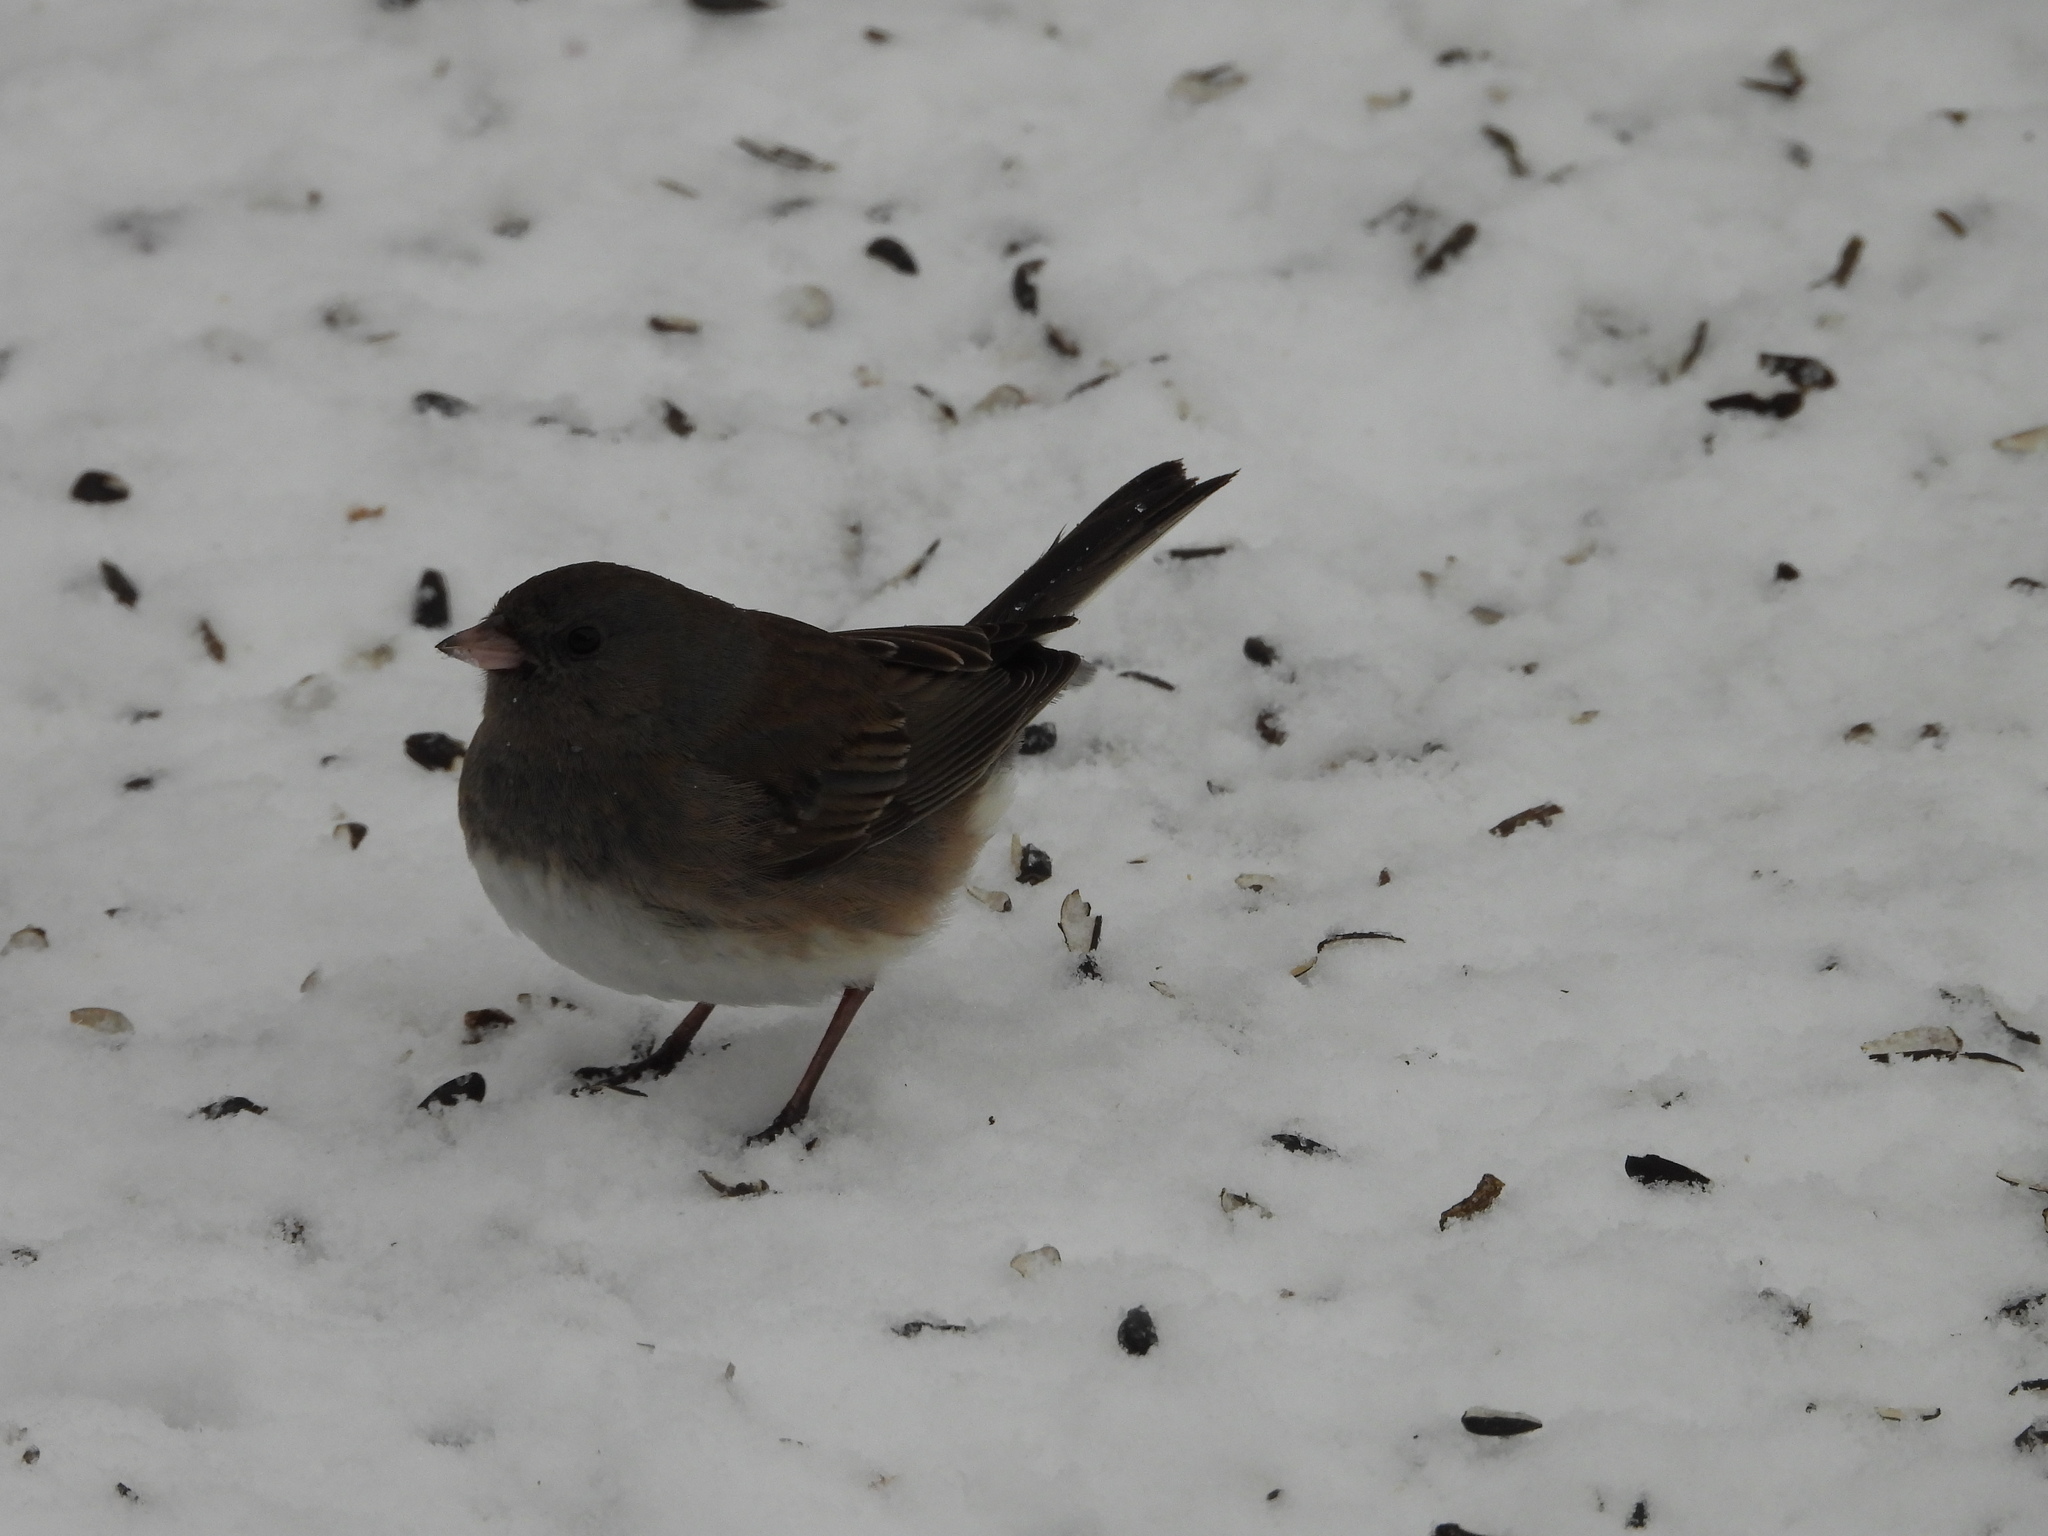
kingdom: Animalia
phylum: Chordata
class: Aves
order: Passeriformes
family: Passerellidae
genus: Junco
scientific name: Junco hyemalis
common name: Dark-eyed junco
